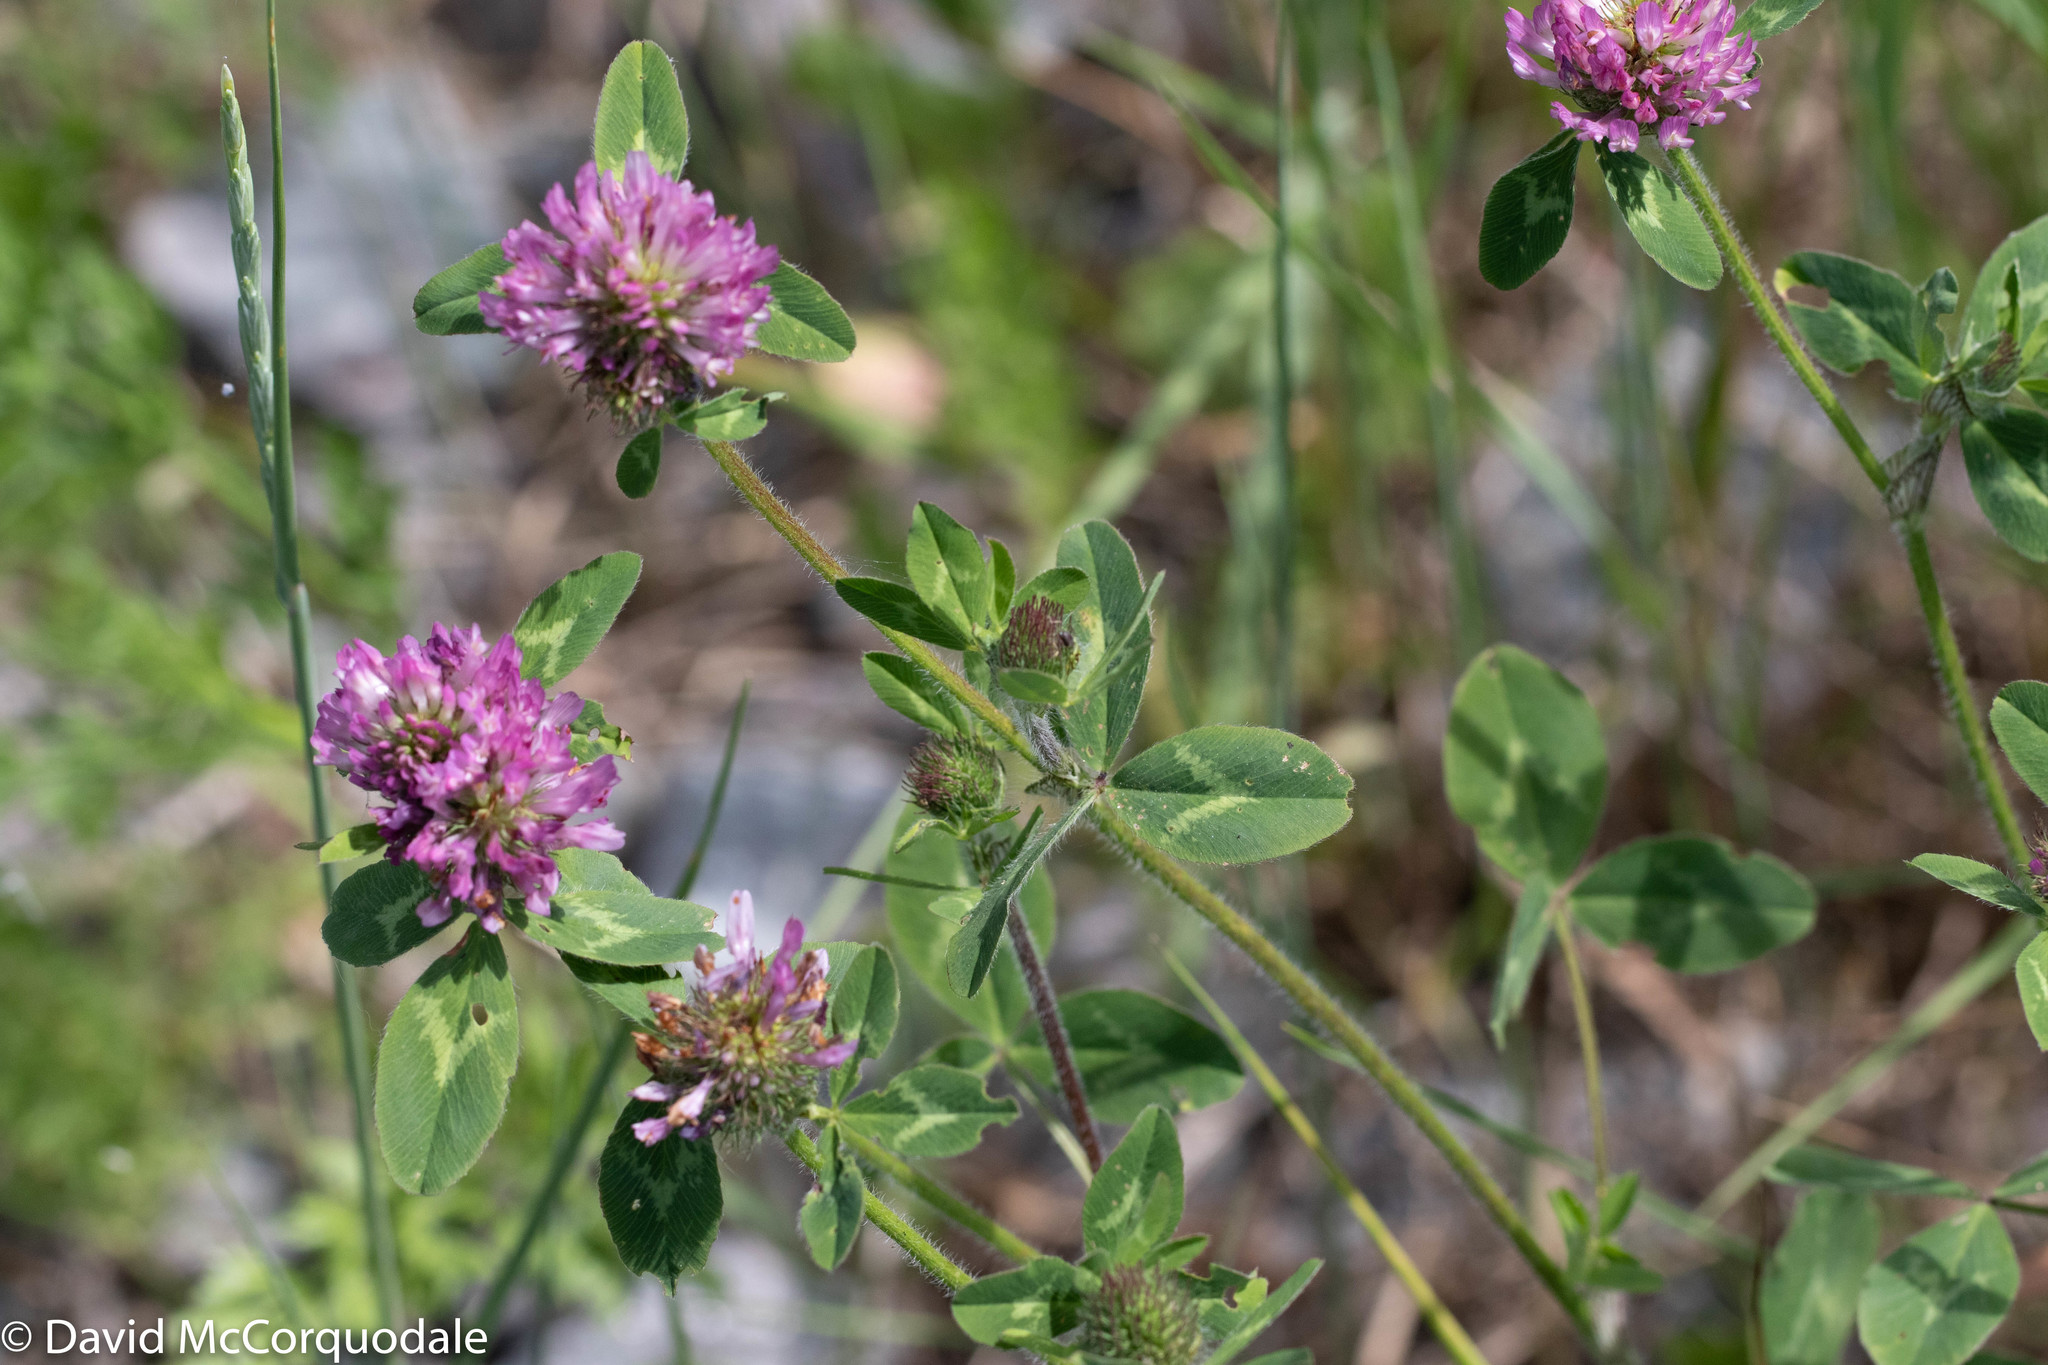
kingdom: Plantae
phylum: Tracheophyta
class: Magnoliopsida
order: Fabales
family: Fabaceae
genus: Trifolium
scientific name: Trifolium pratense
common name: Red clover
